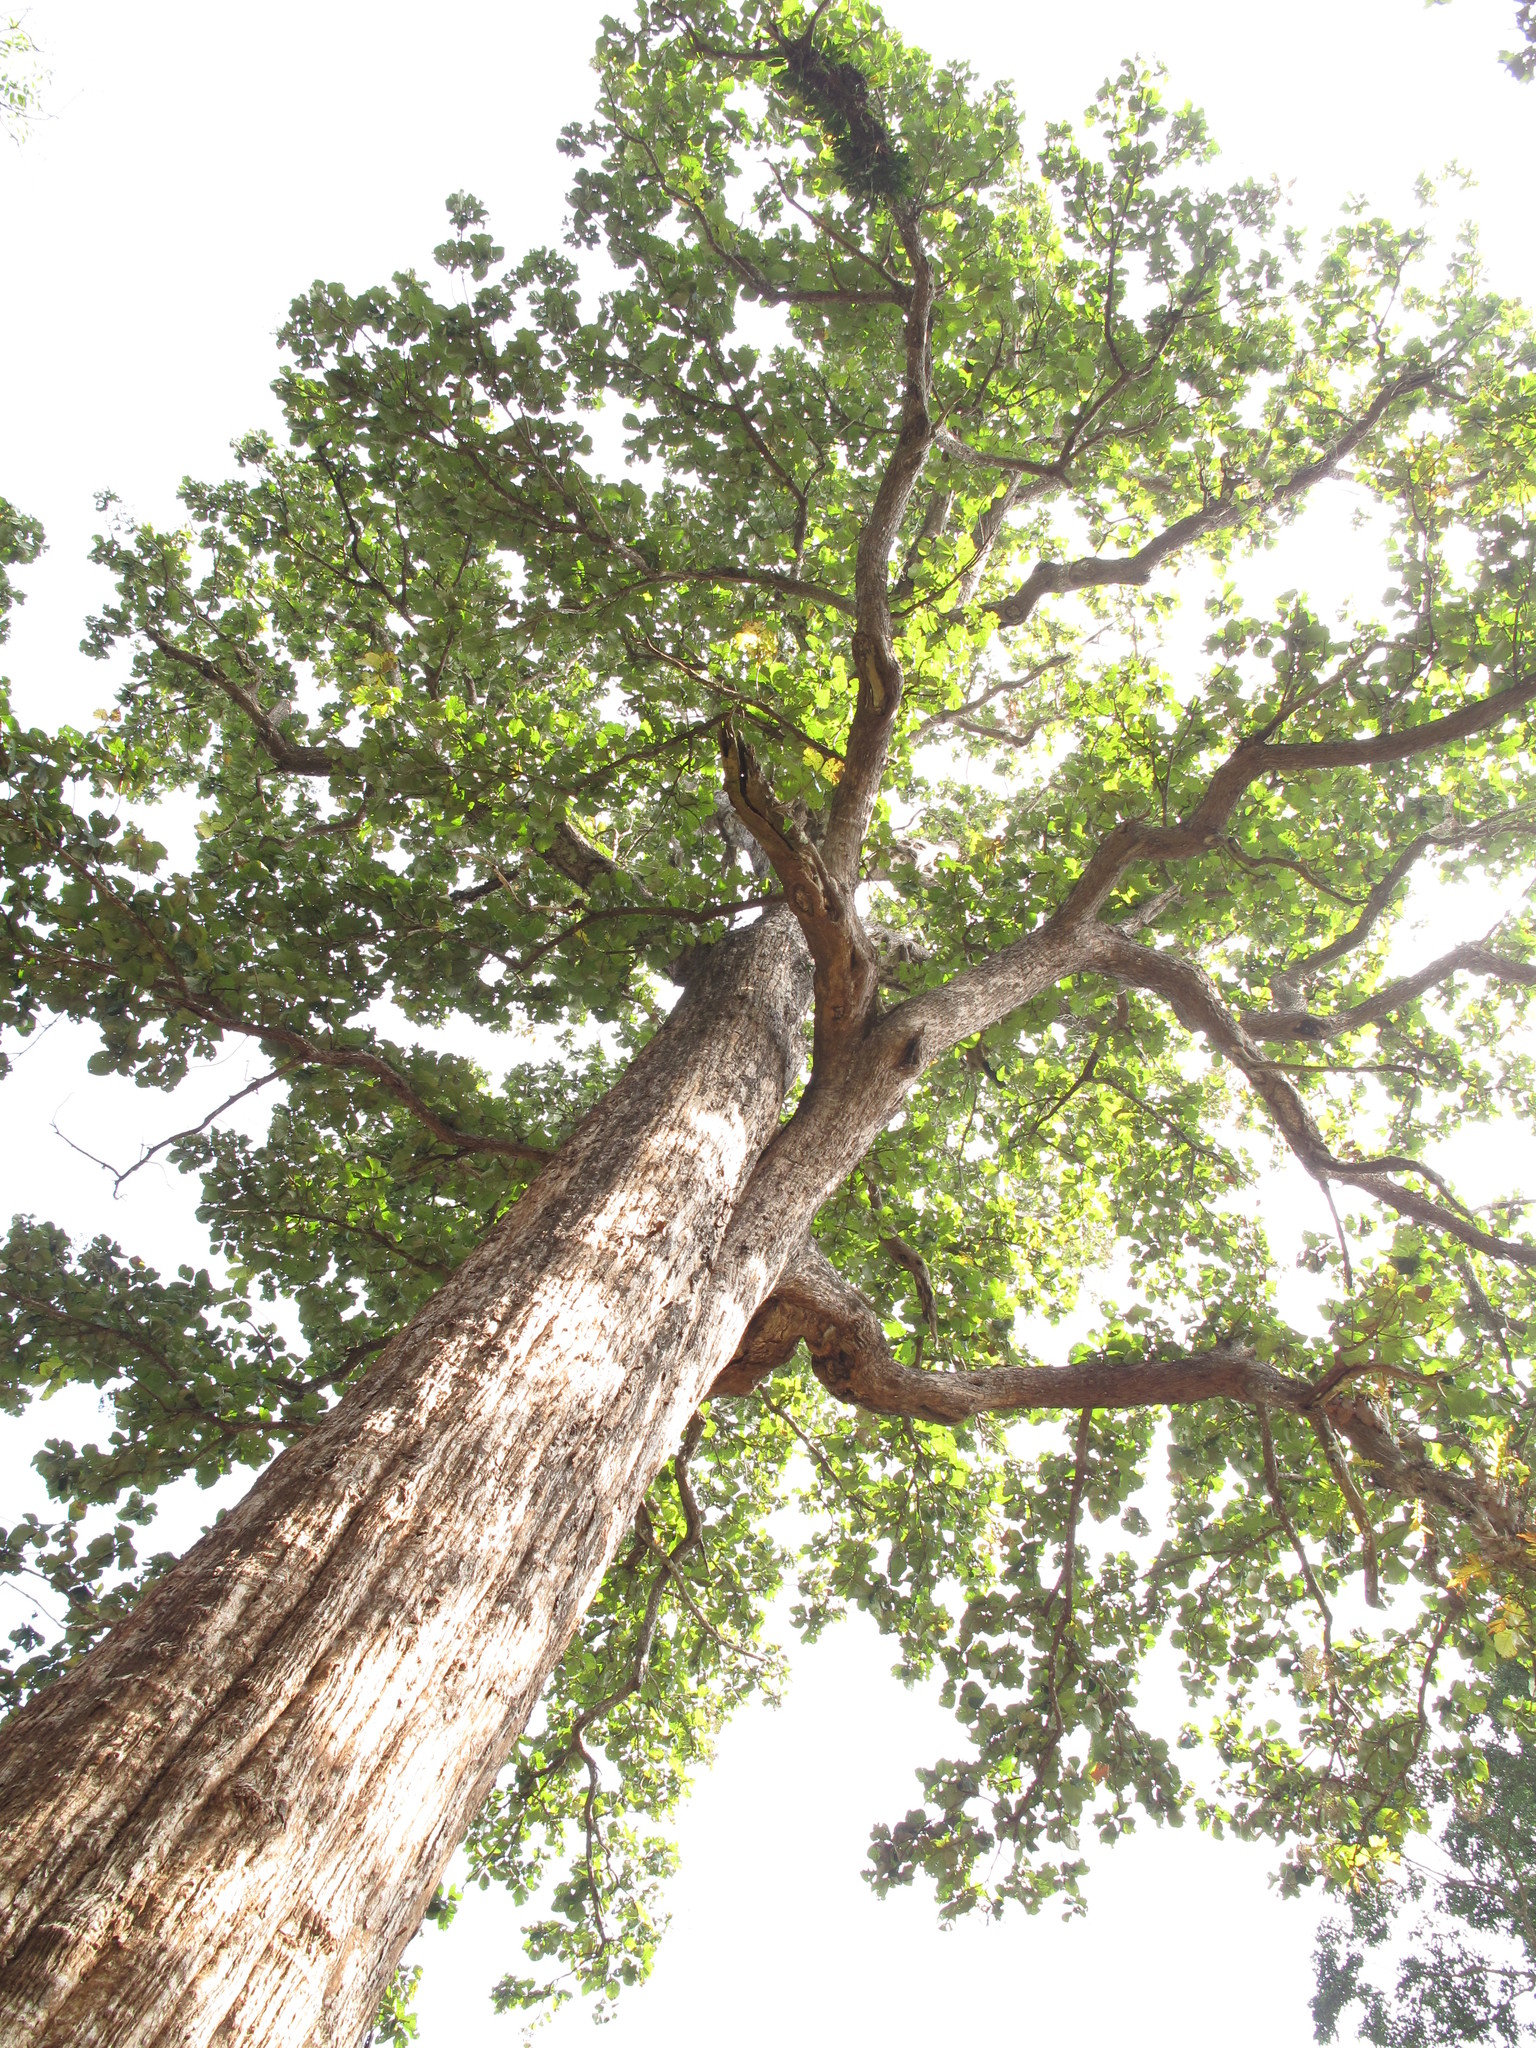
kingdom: Plantae
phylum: Tracheophyta
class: Magnoliopsida
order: Lamiales
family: Lamiaceae
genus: Tectona
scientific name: Tectona grandis
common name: Teak
